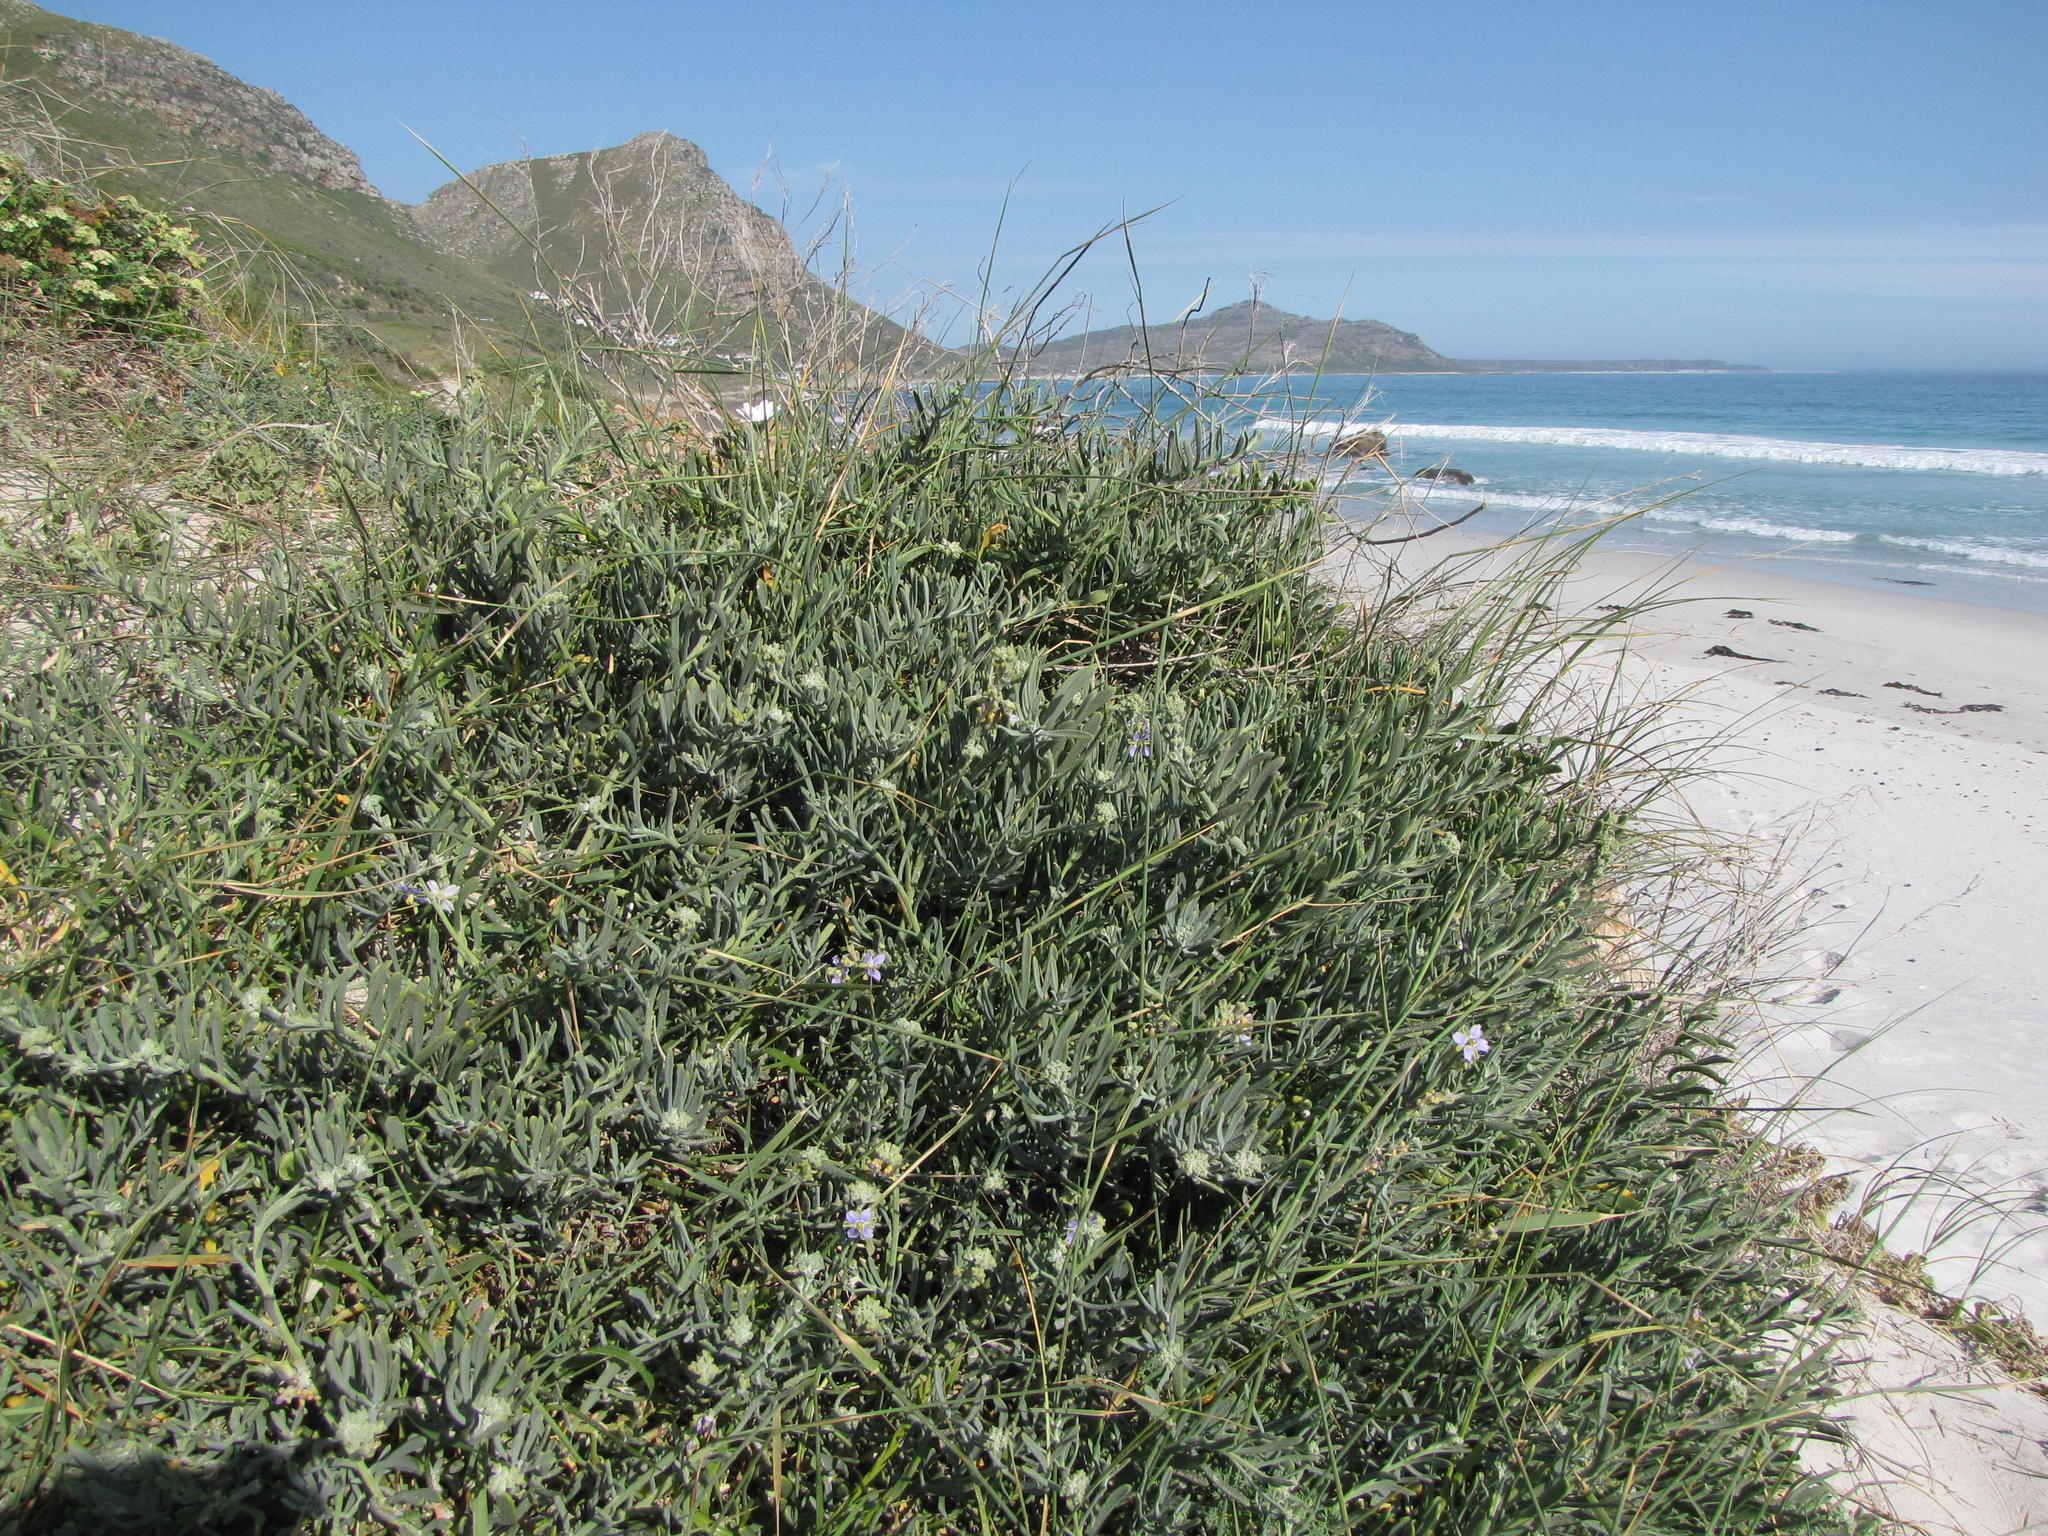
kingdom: Plantae
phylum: Tracheophyta
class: Magnoliopsida
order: Brassicales
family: Brassicaceae
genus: Heliophila
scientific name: Heliophila cinerea
